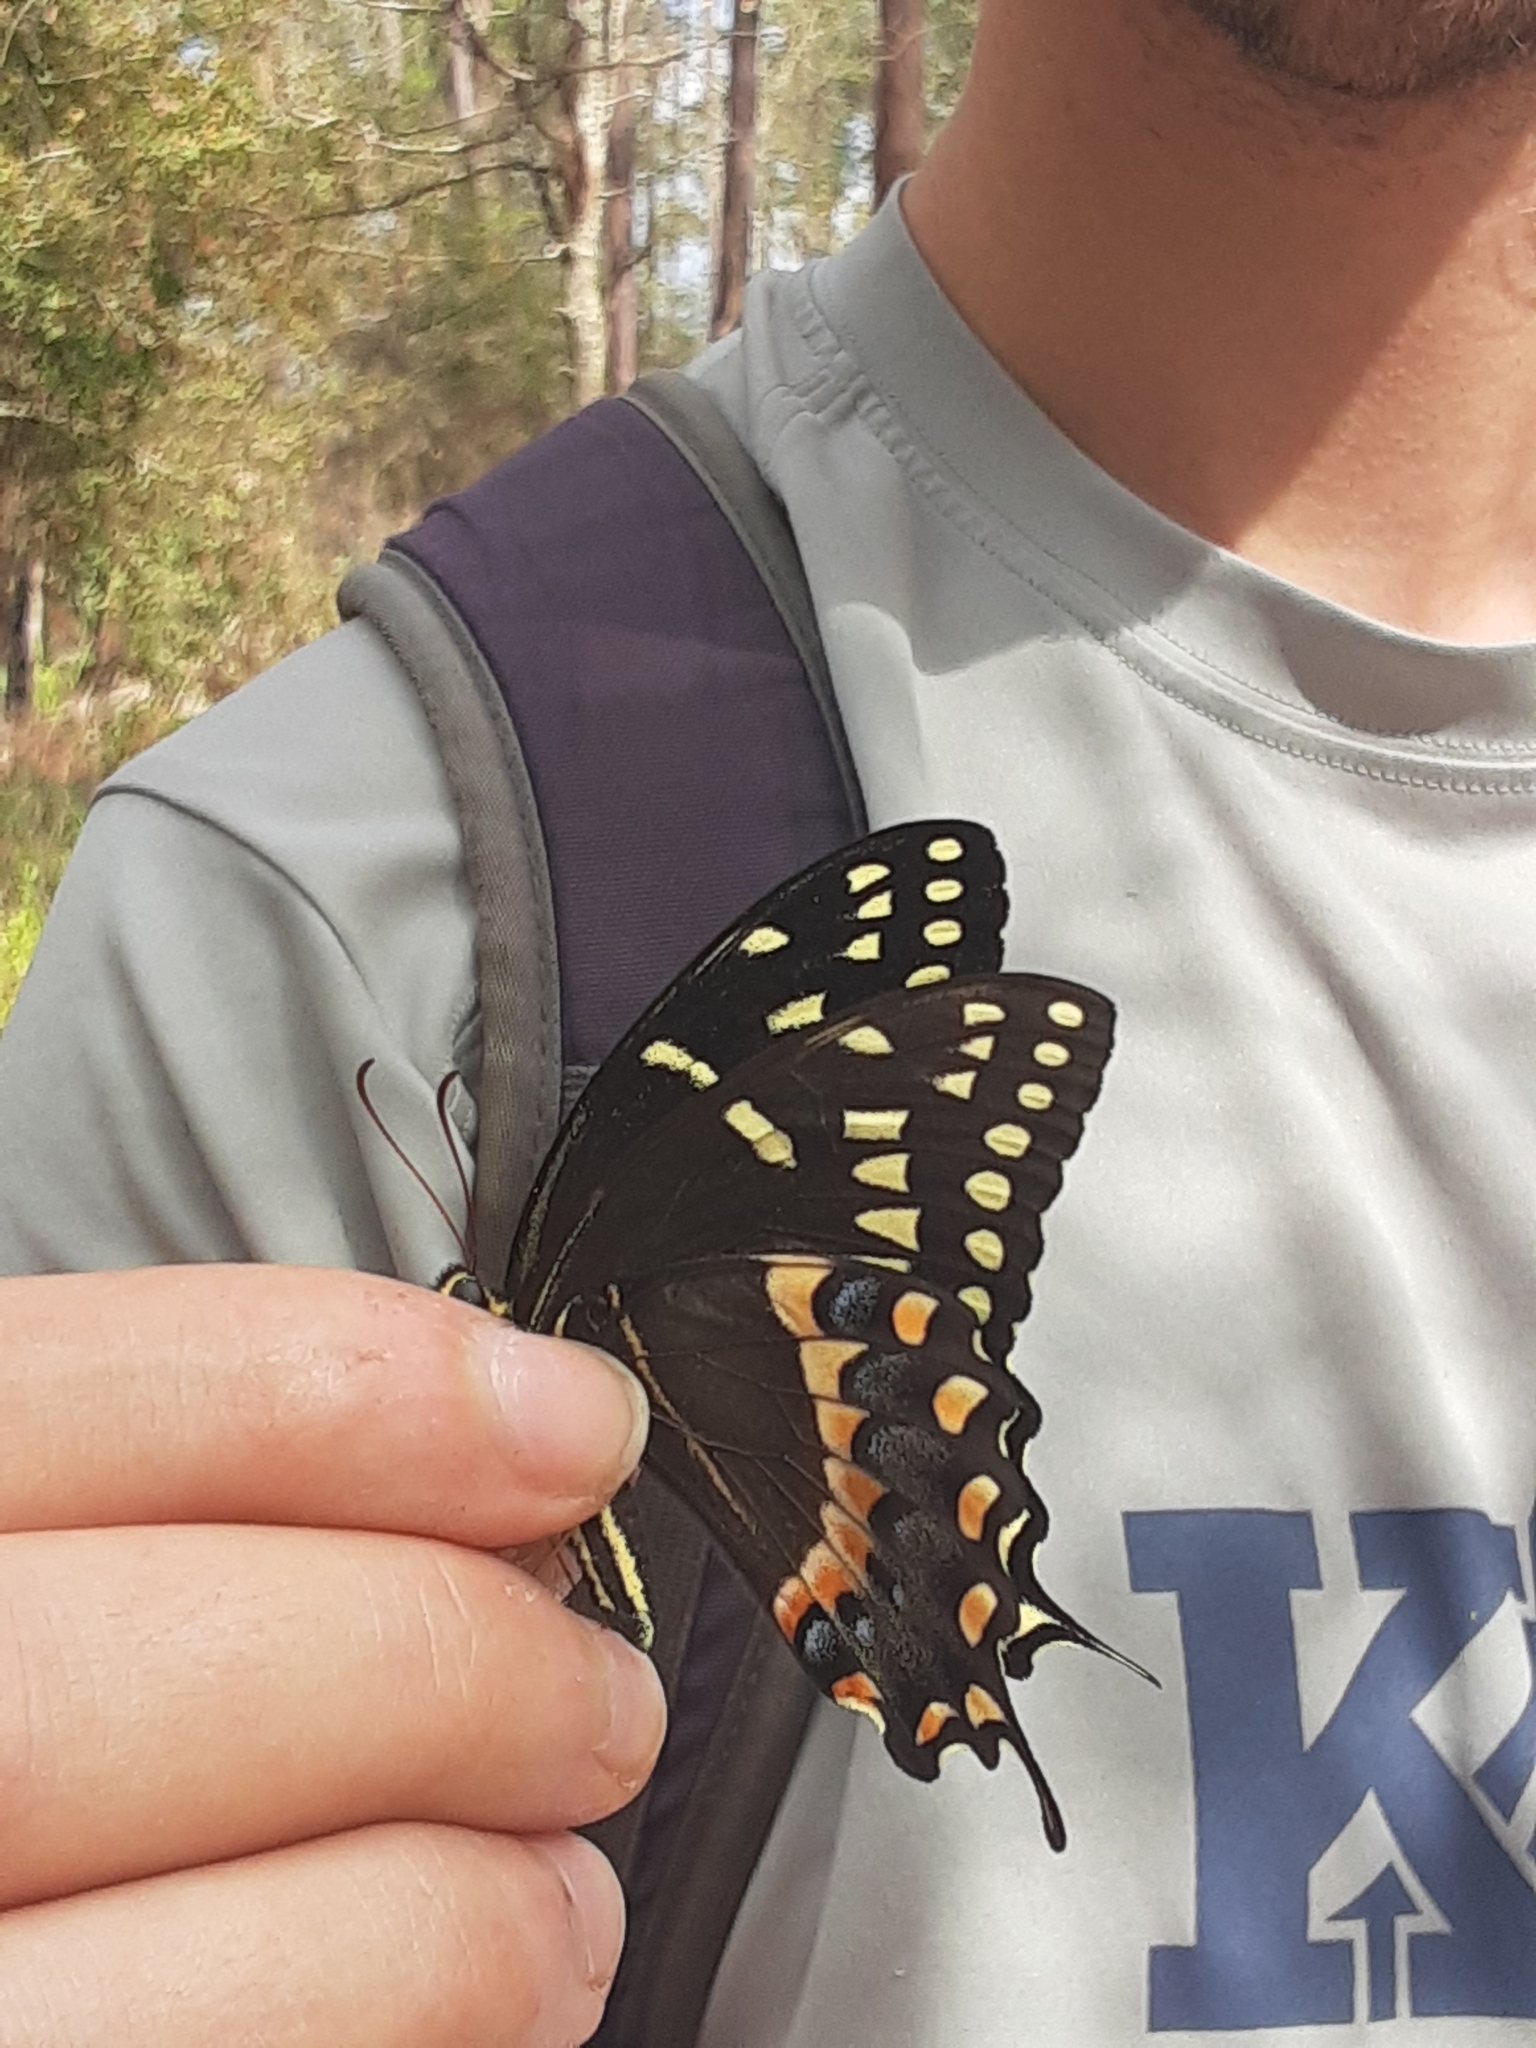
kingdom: Animalia
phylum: Arthropoda
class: Insecta
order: Lepidoptera
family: Papilionidae
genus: Papilio
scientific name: Papilio palamedes
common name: Palamedes swallowtail
